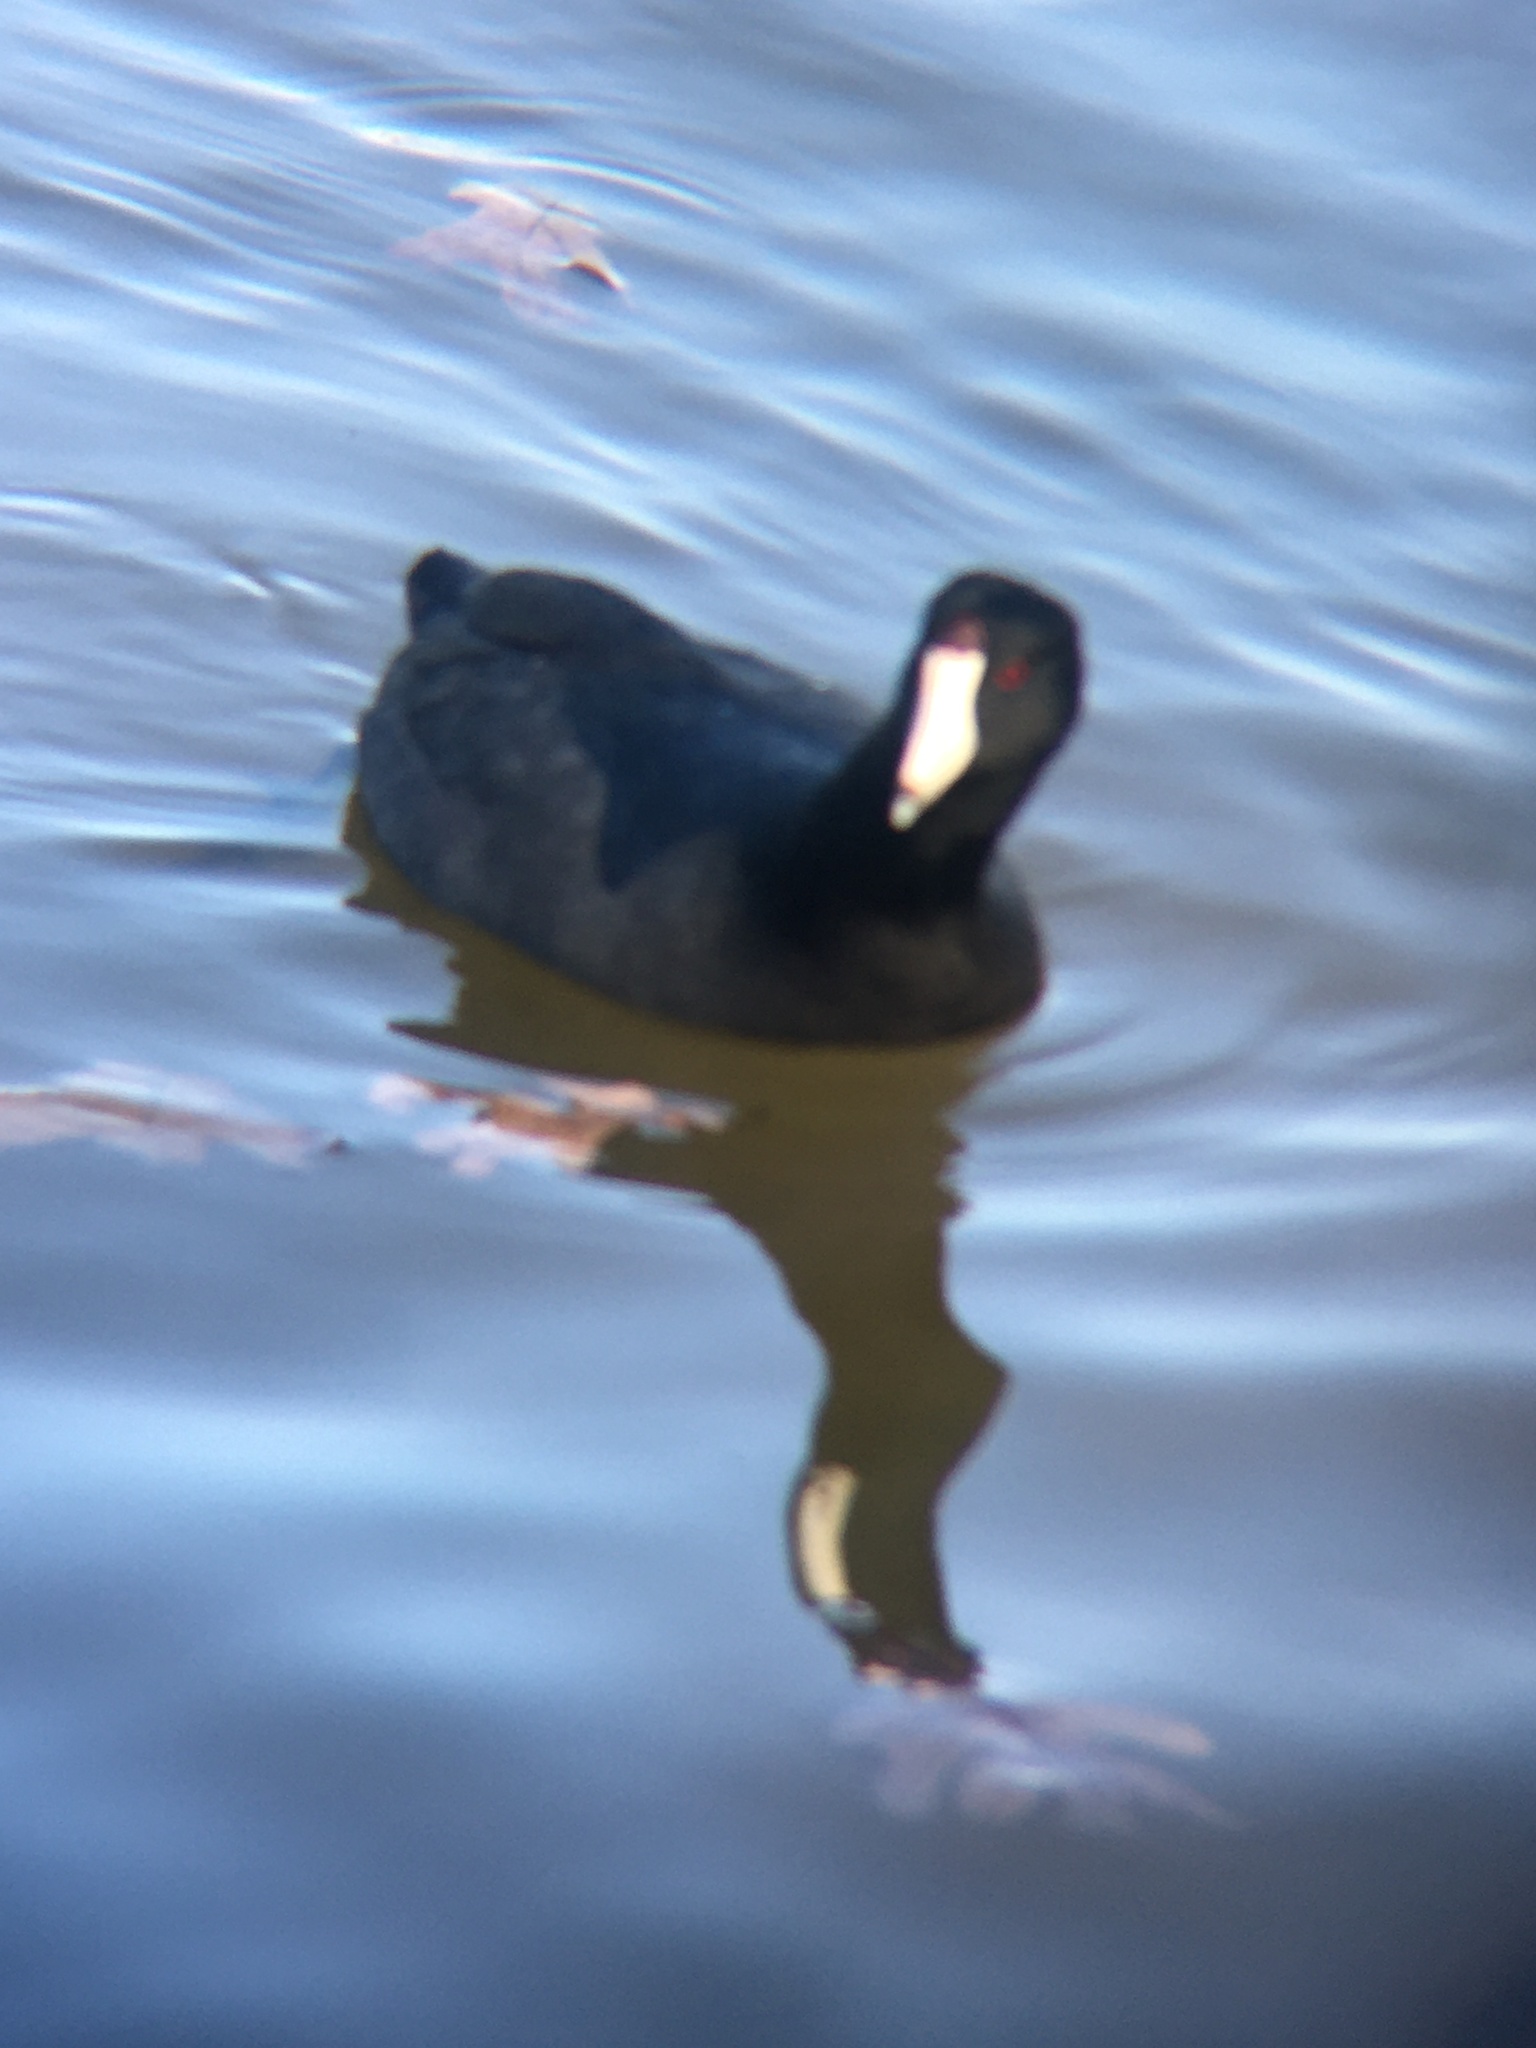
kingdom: Animalia
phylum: Chordata
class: Aves
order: Gruiformes
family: Rallidae
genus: Fulica
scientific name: Fulica americana
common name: American coot
